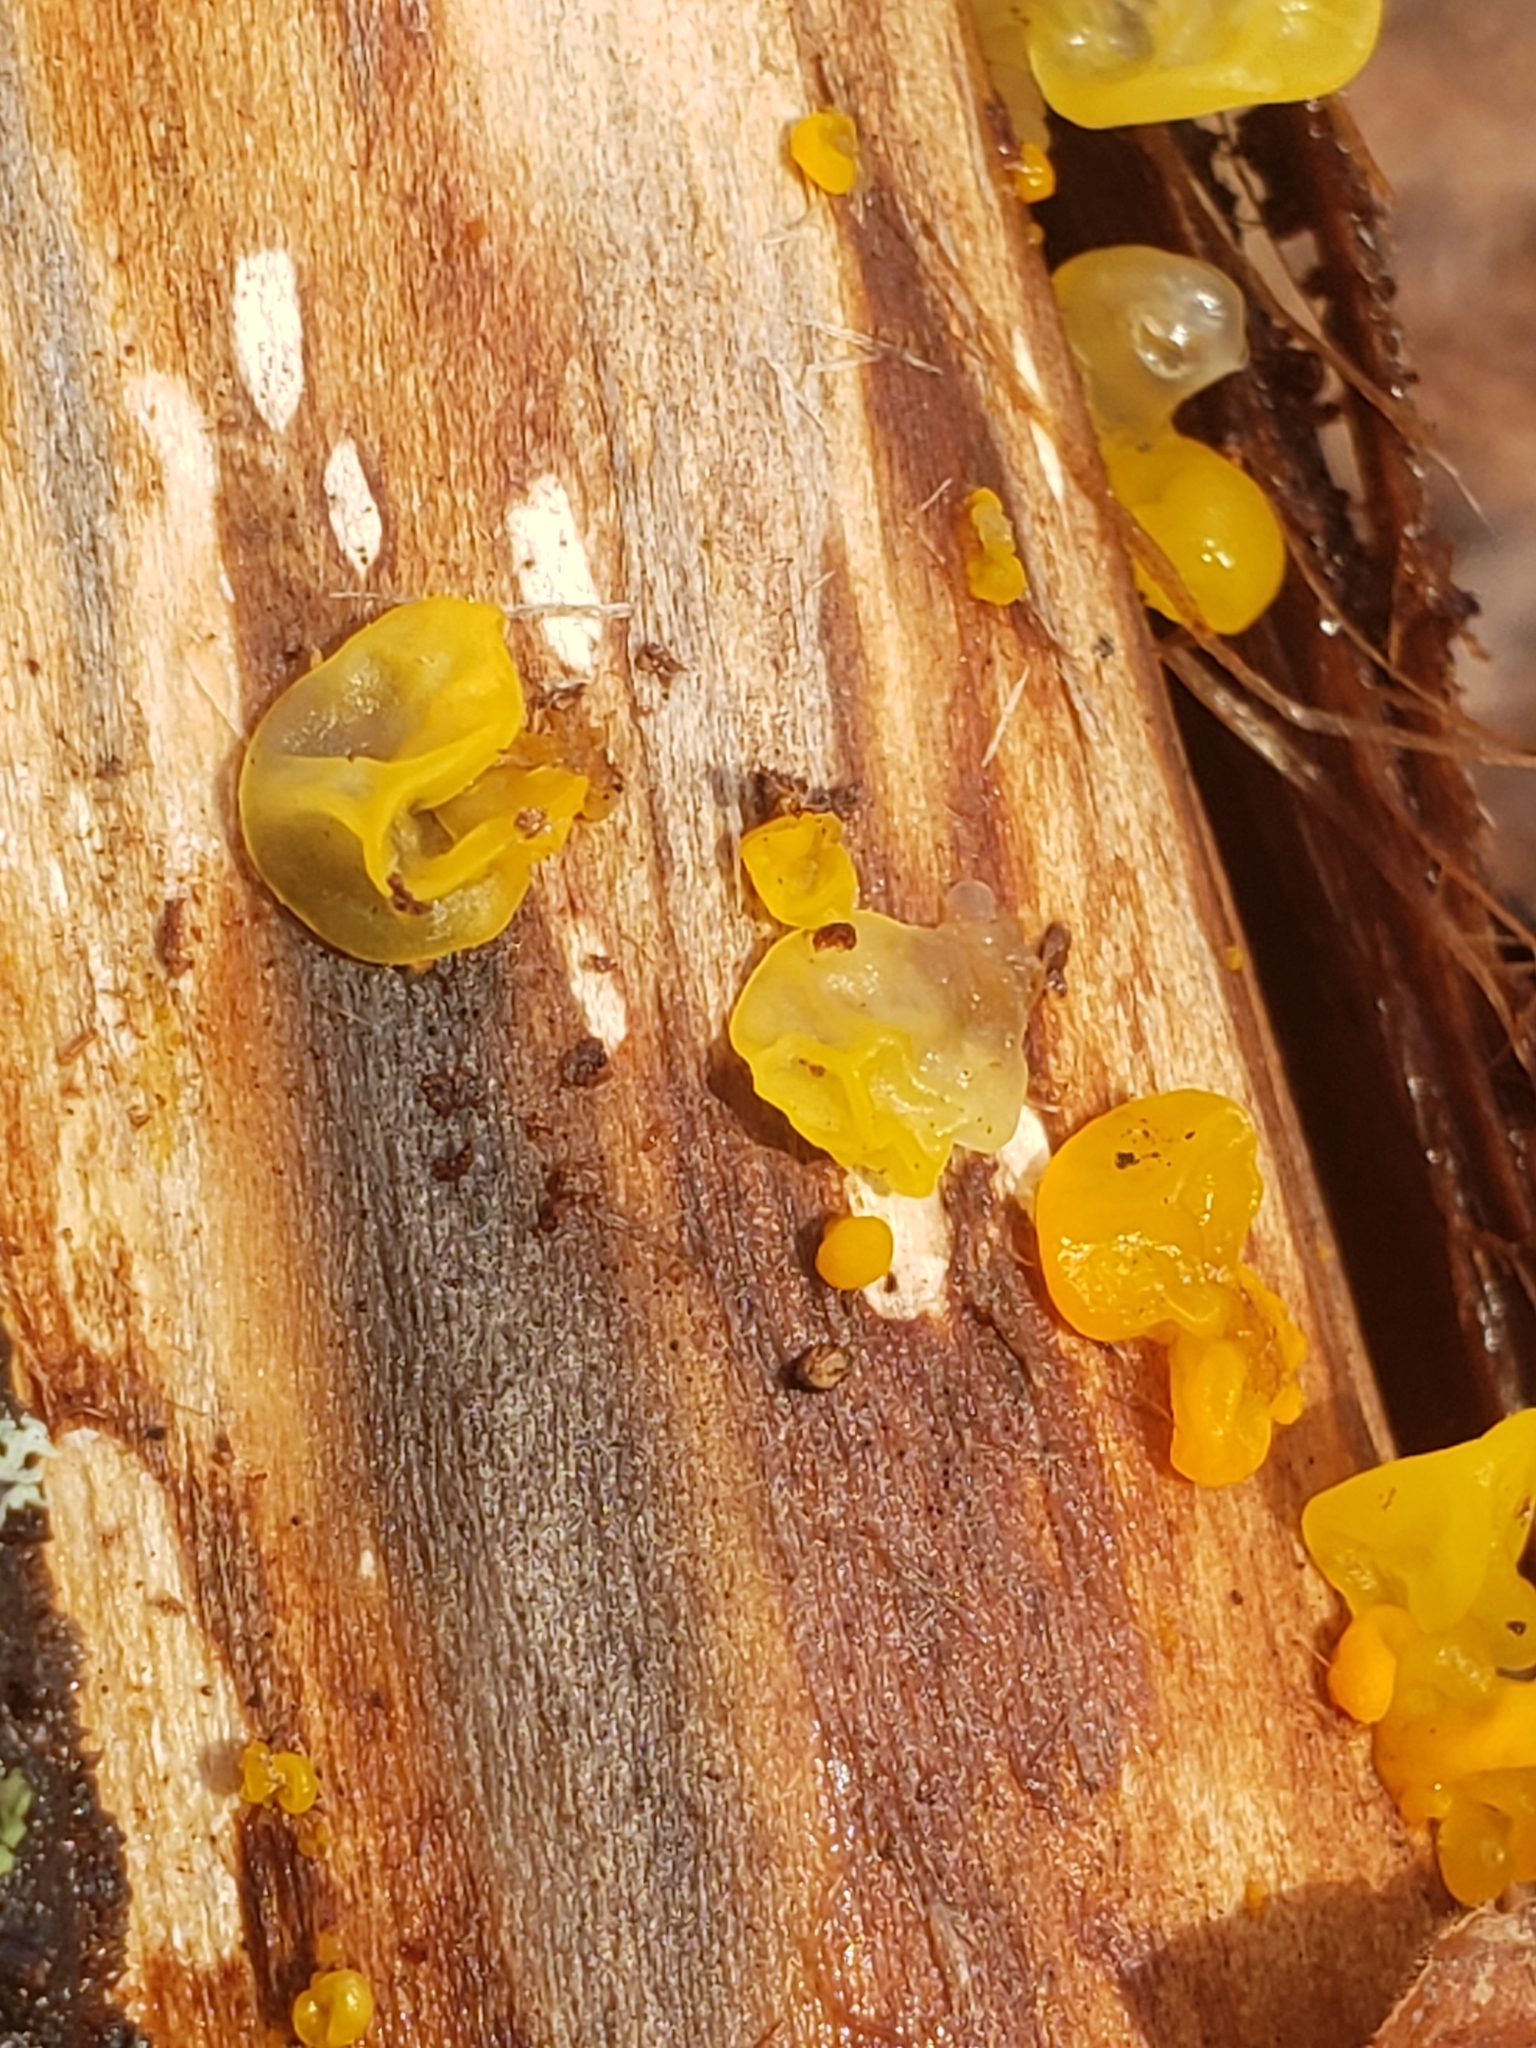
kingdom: Fungi
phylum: Basidiomycota
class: Tremellomycetes
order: Tremellales
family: Tremellaceae
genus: Tremella
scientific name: Tremella mesenterica
